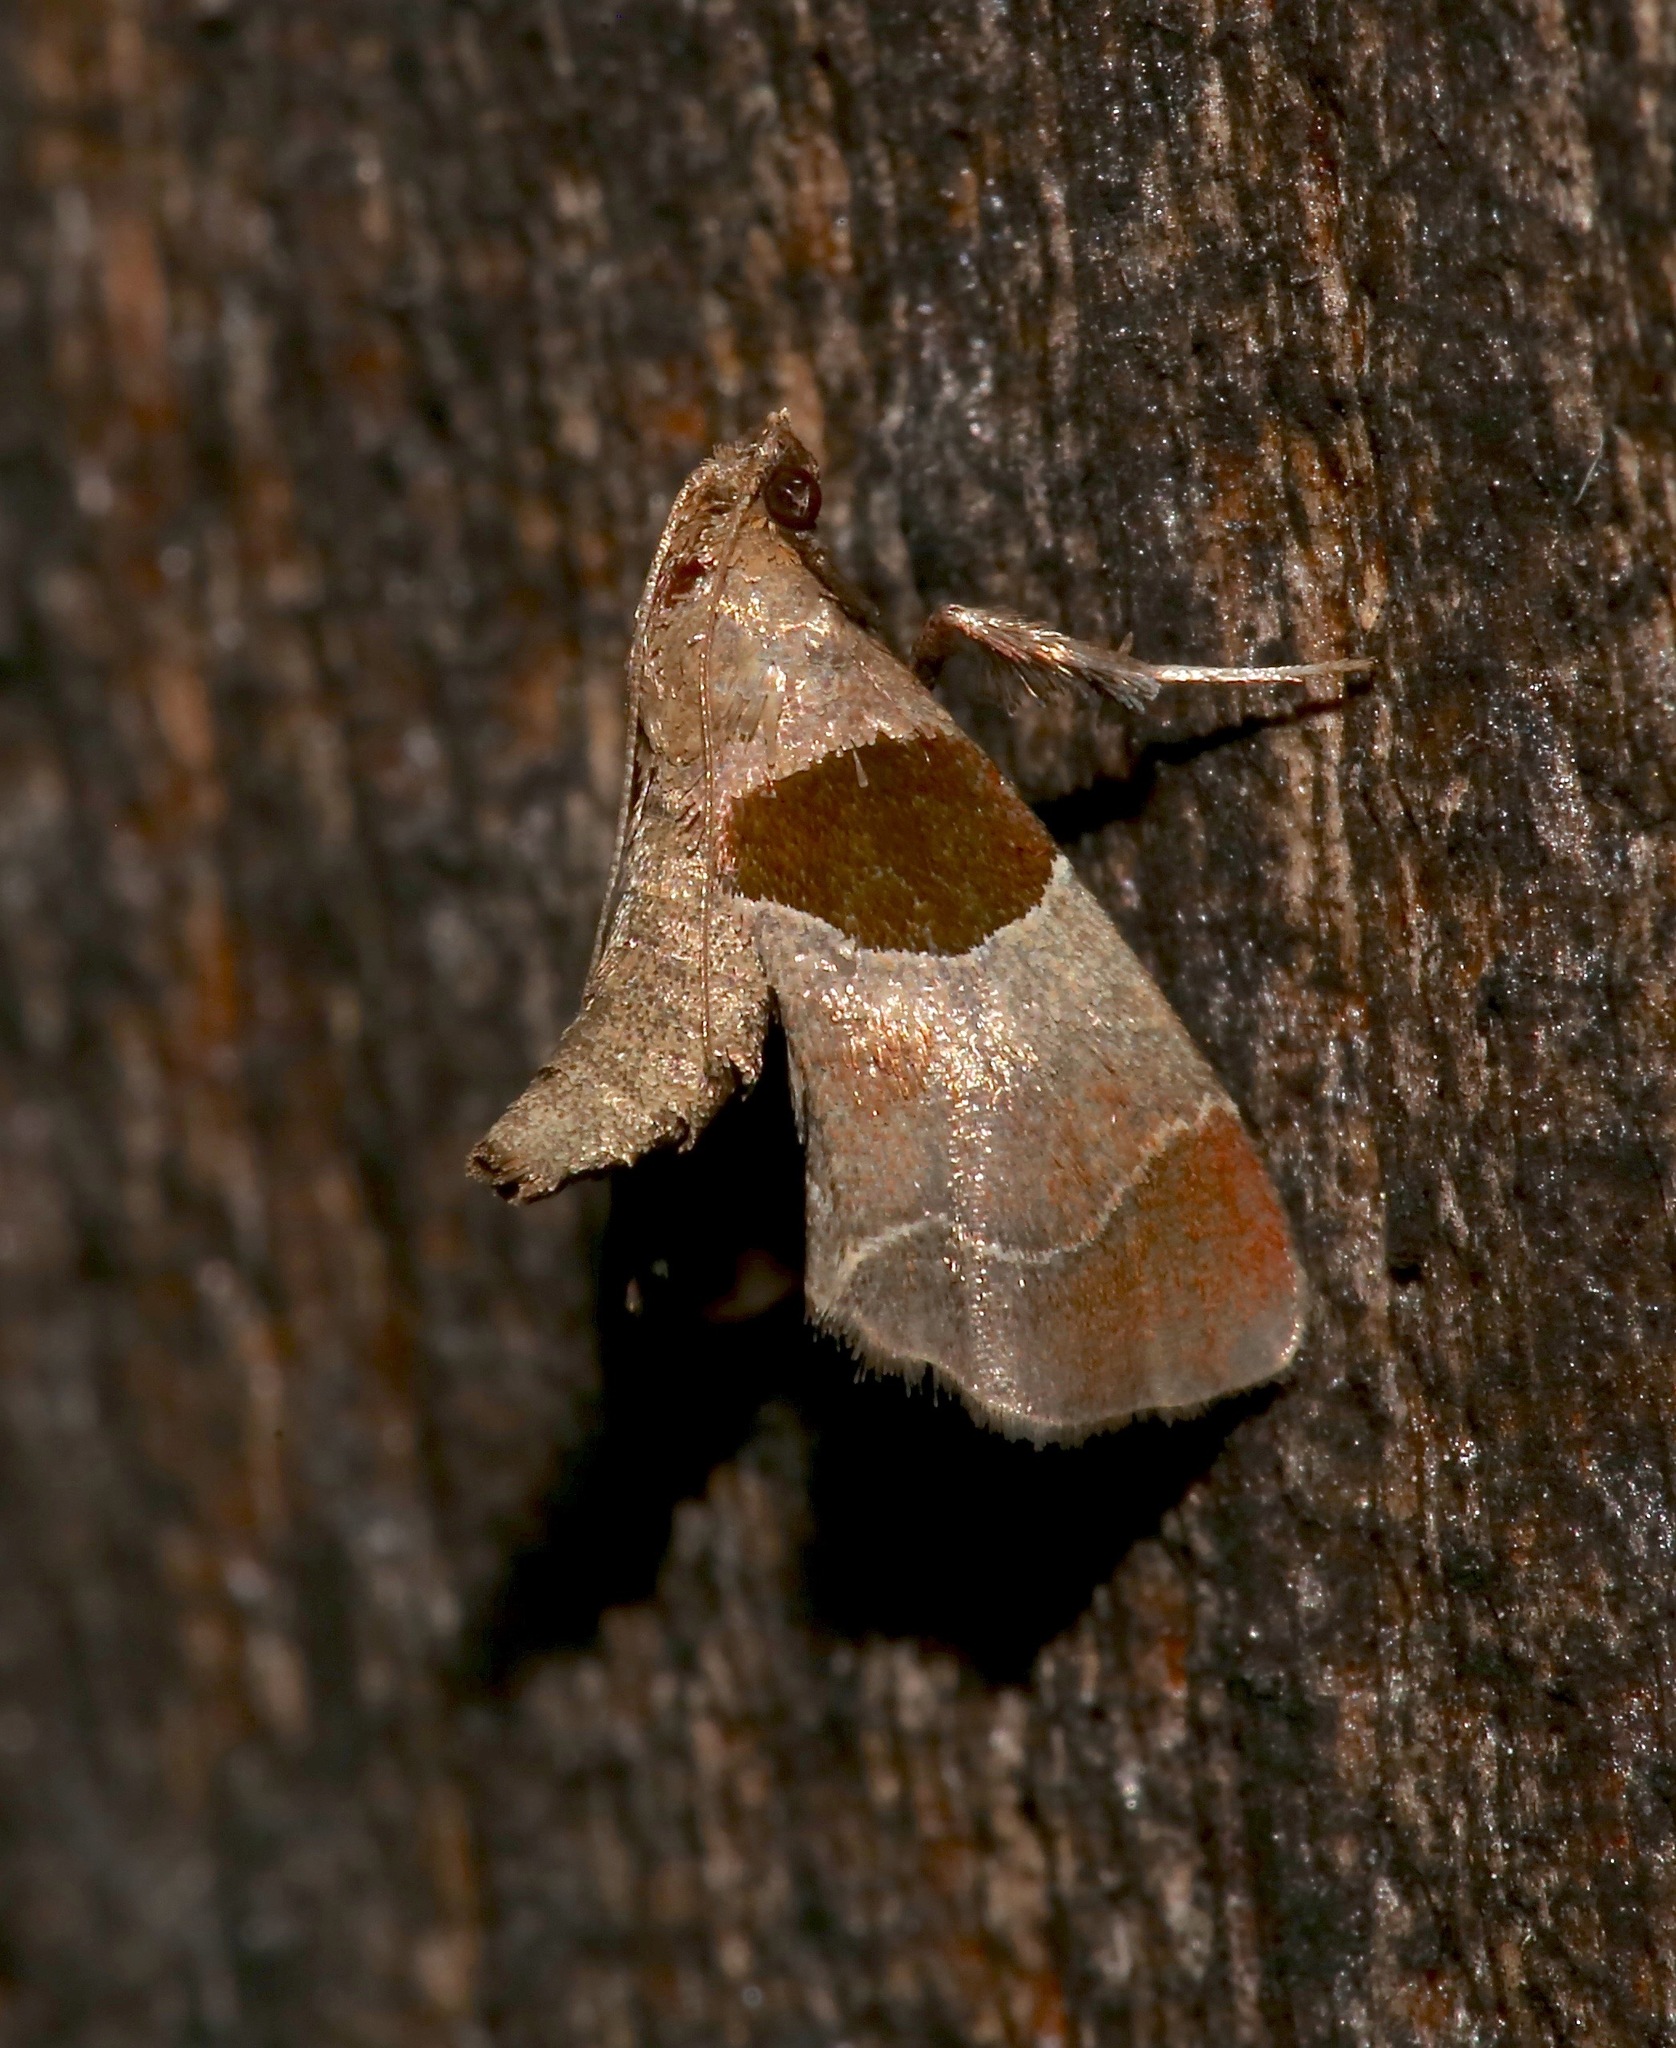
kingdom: Animalia
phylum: Arthropoda
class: Insecta
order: Lepidoptera
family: Pyralidae
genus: Tosale
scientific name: Tosale oviplagalis
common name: Dimorphic tosale moth
